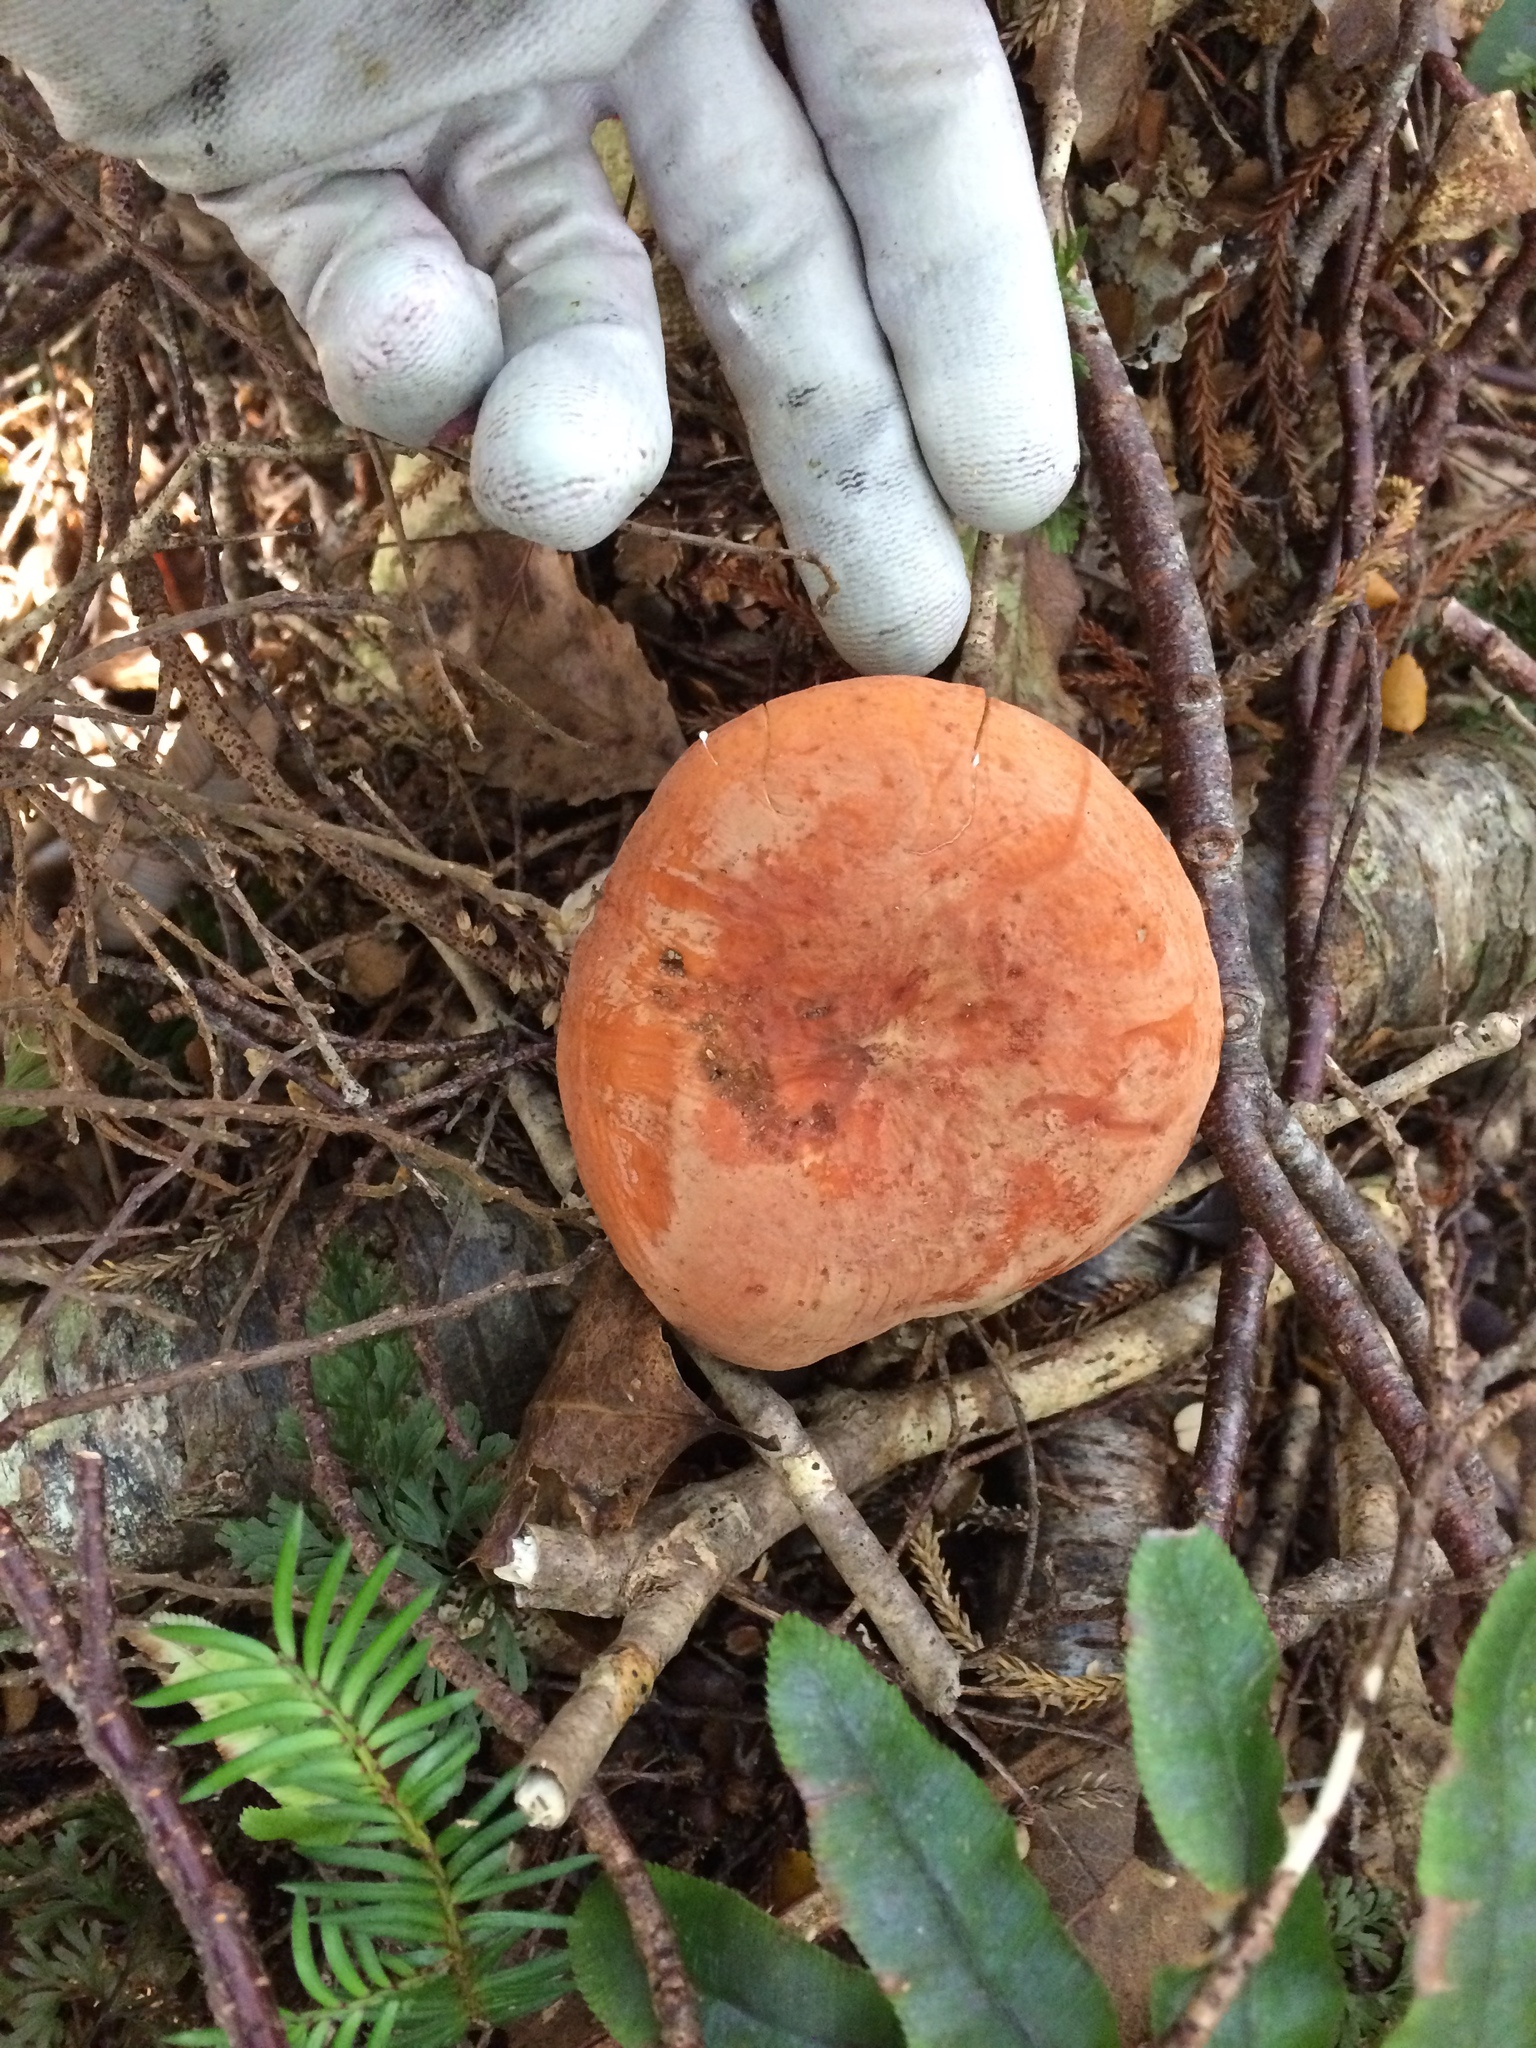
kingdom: Fungi
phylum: Basidiomycota
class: Agaricomycetes
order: Russulales
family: Russulaceae
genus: Lactifluus
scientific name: Lactifluus aurantioruber
